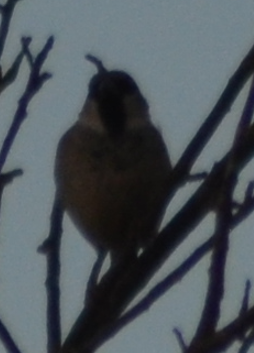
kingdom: Animalia
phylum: Chordata
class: Aves
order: Passeriformes
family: Passeridae
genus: Passer
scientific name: Passer domesticus
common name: House sparrow
